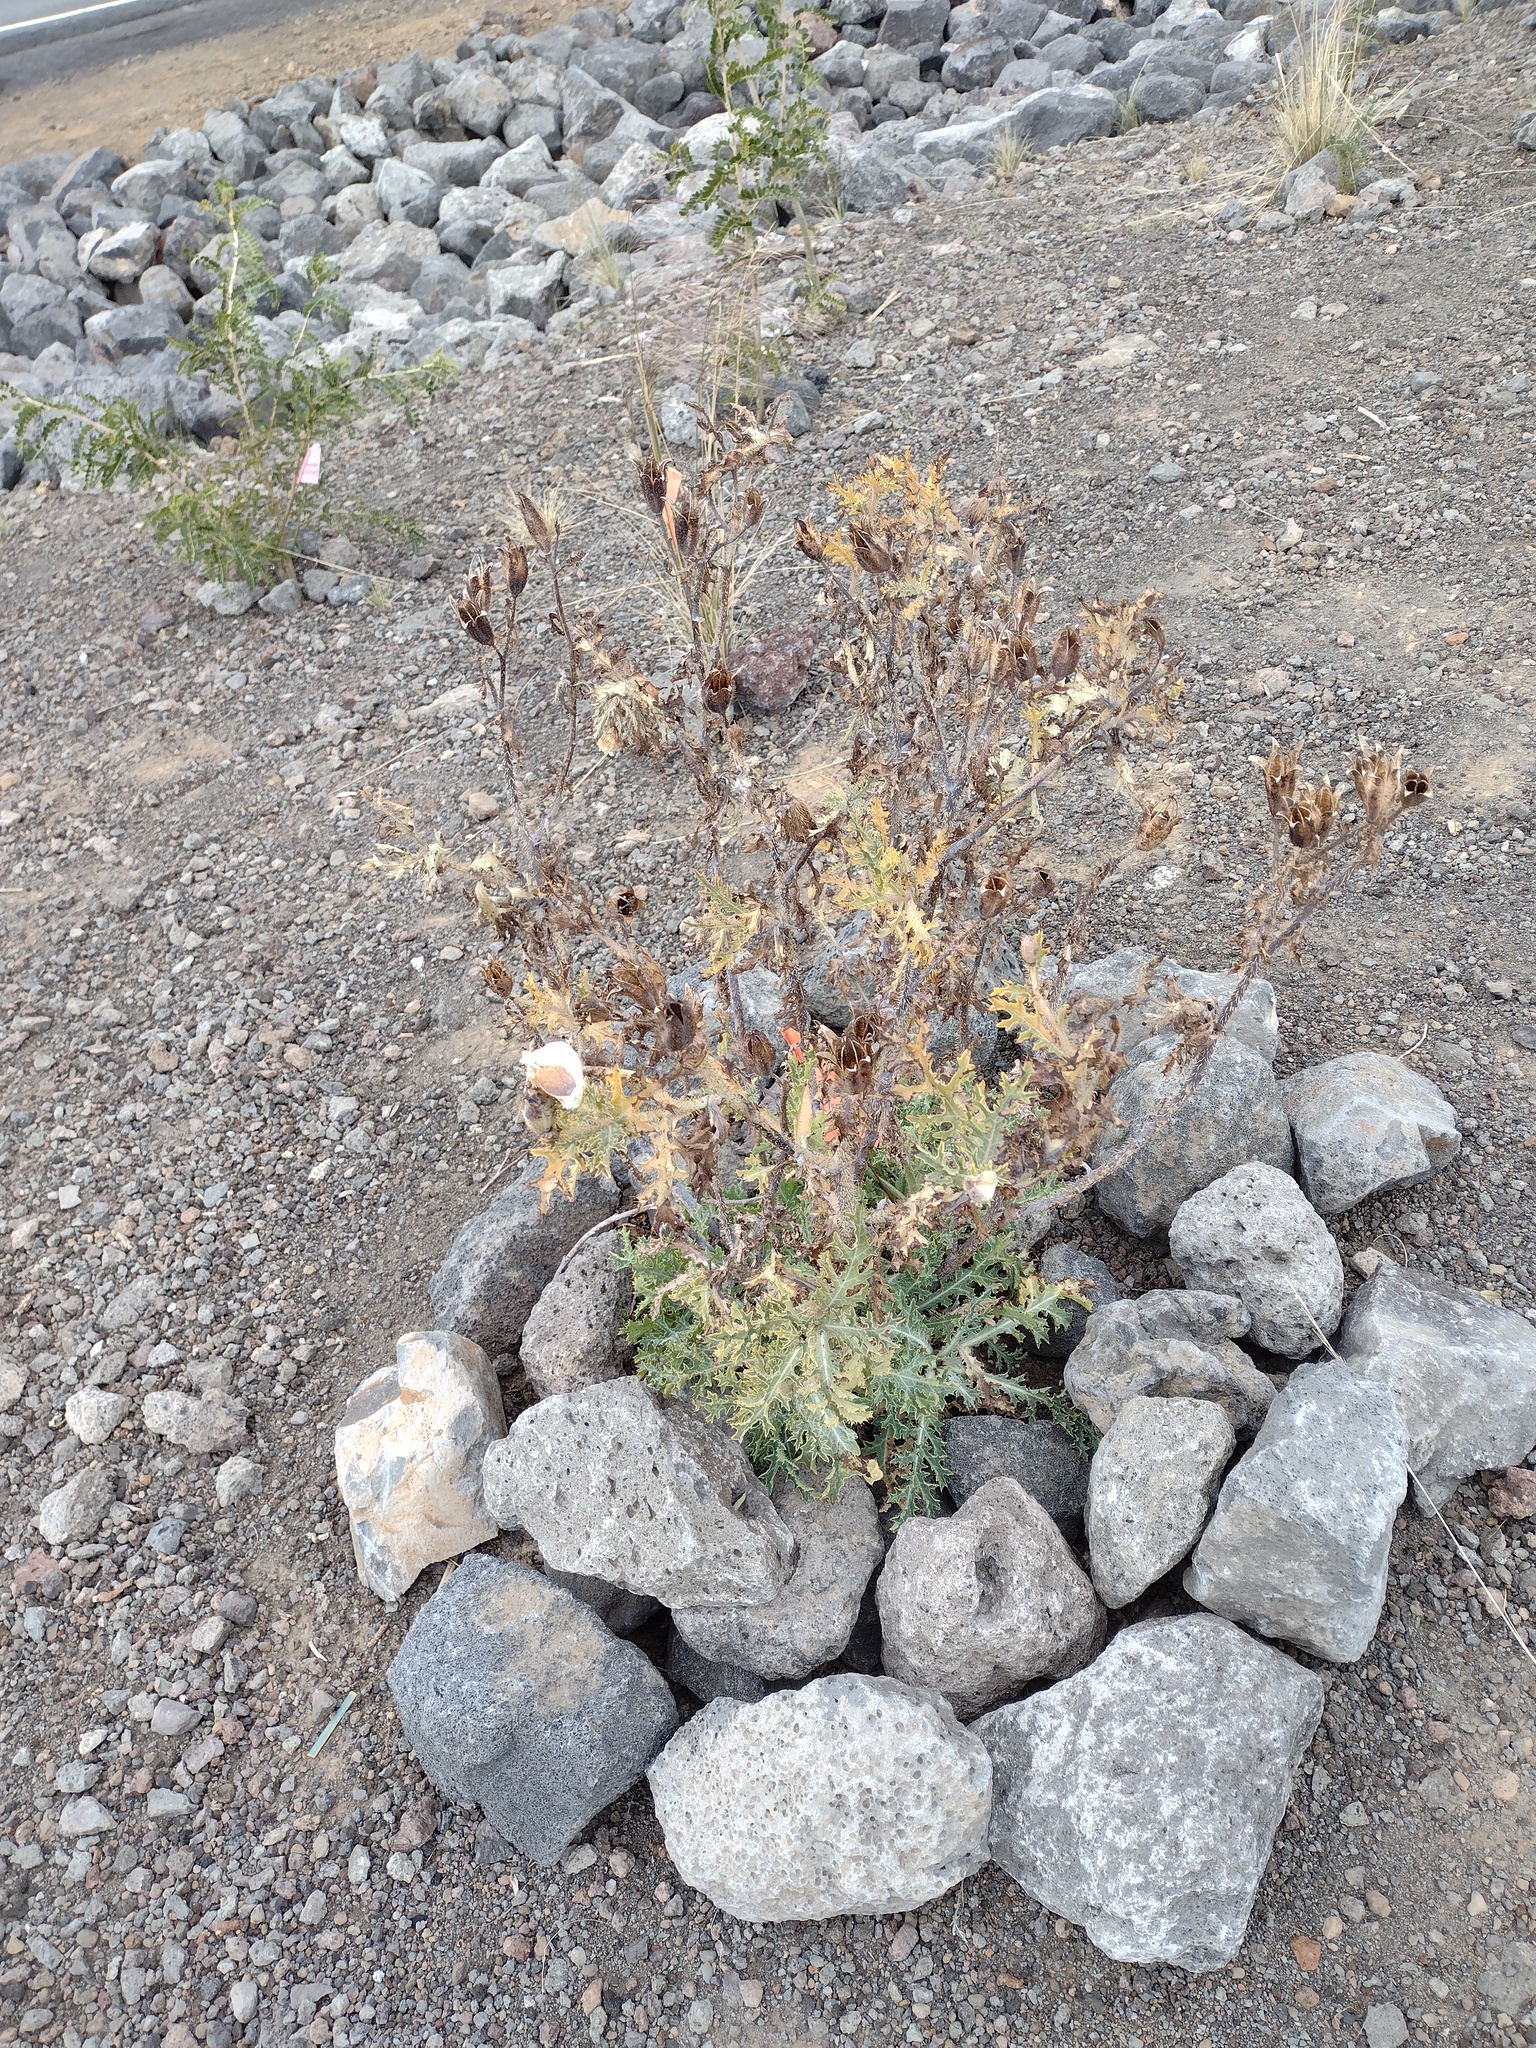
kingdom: Plantae
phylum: Tracheophyta
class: Magnoliopsida
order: Ranunculales
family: Papaveraceae
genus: Argemone
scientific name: Argemone glauca
